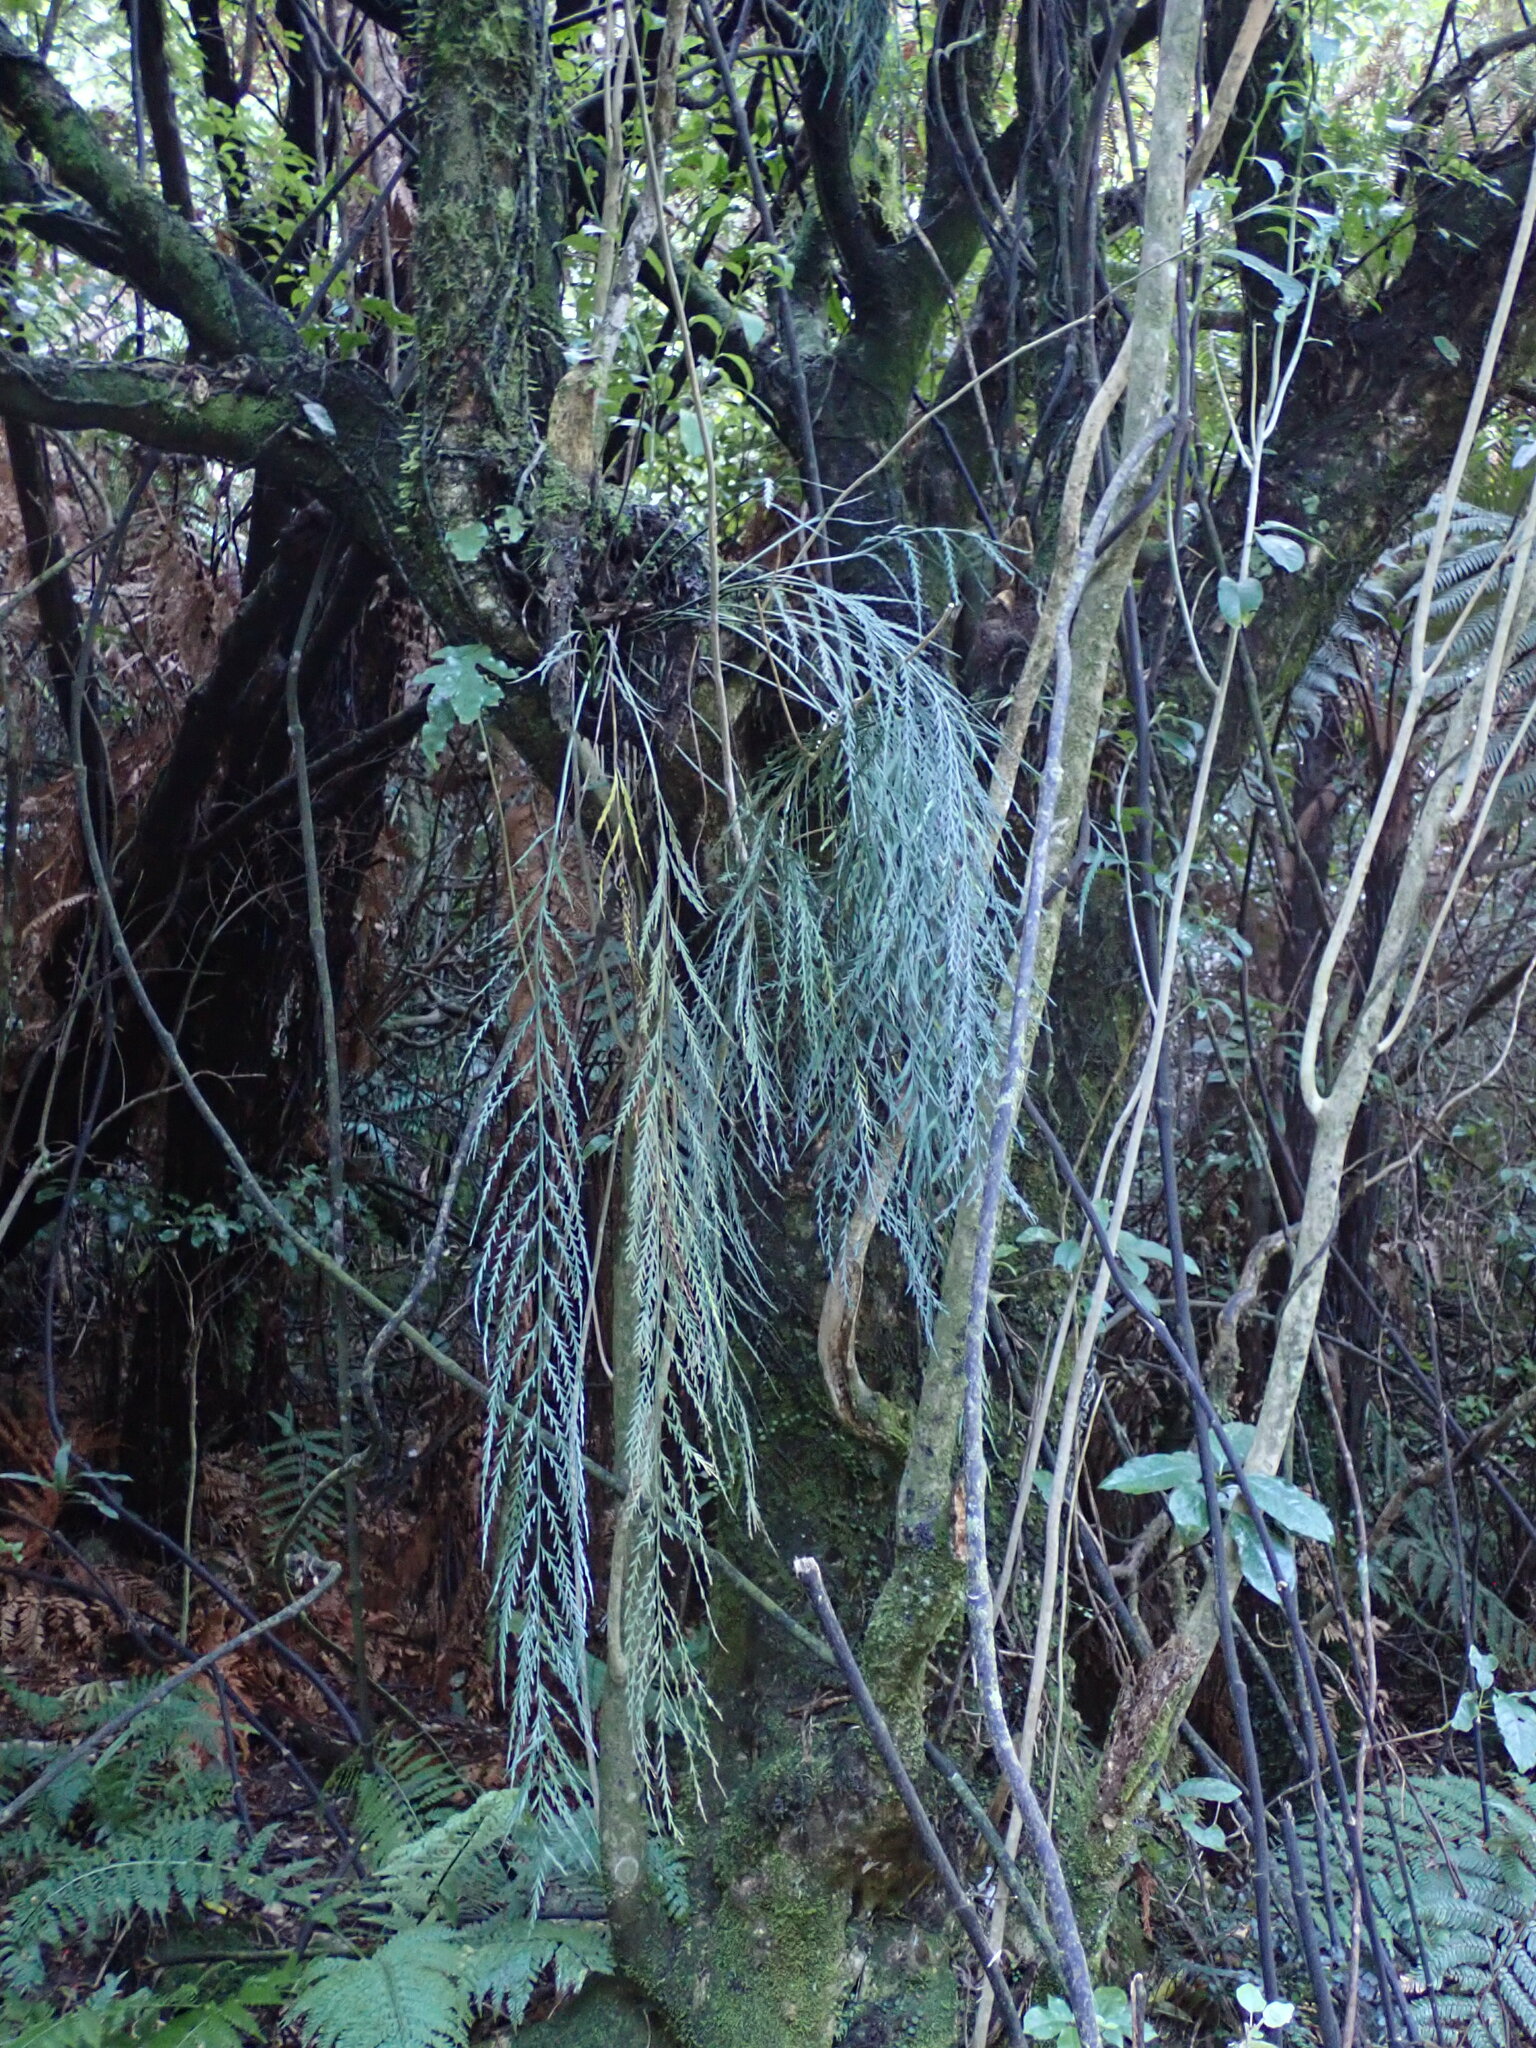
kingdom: Plantae
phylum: Tracheophyta
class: Polypodiopsida
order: Polypodiales
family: Aspleniaceae
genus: Asplenium
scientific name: Asplenium flaccidum
